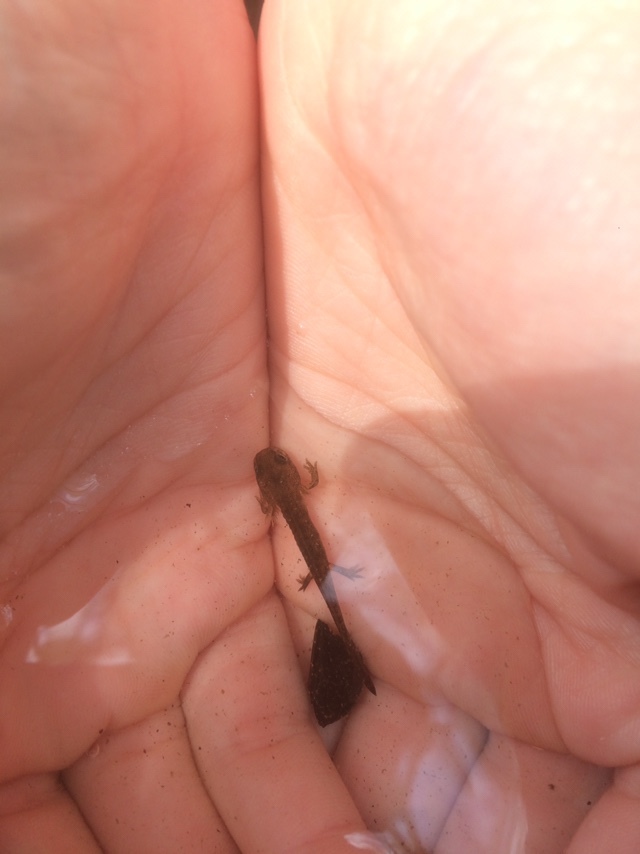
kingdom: Animalia
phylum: Chordata
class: Amphibia
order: Caudata
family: Salamandridae
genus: Salamandra
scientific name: Salamandra salamandra
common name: Fire salamander
